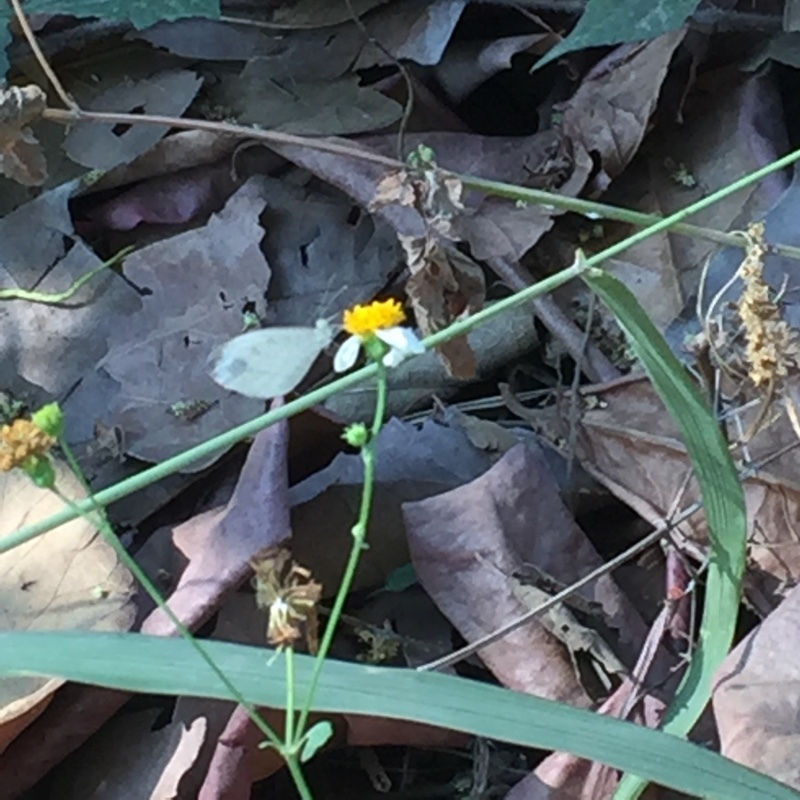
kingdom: Animalia
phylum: Arthropoda
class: Insecta
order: Lepidoptera
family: Pieridae
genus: Leptosia
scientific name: Leptosia nina
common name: Psyche
